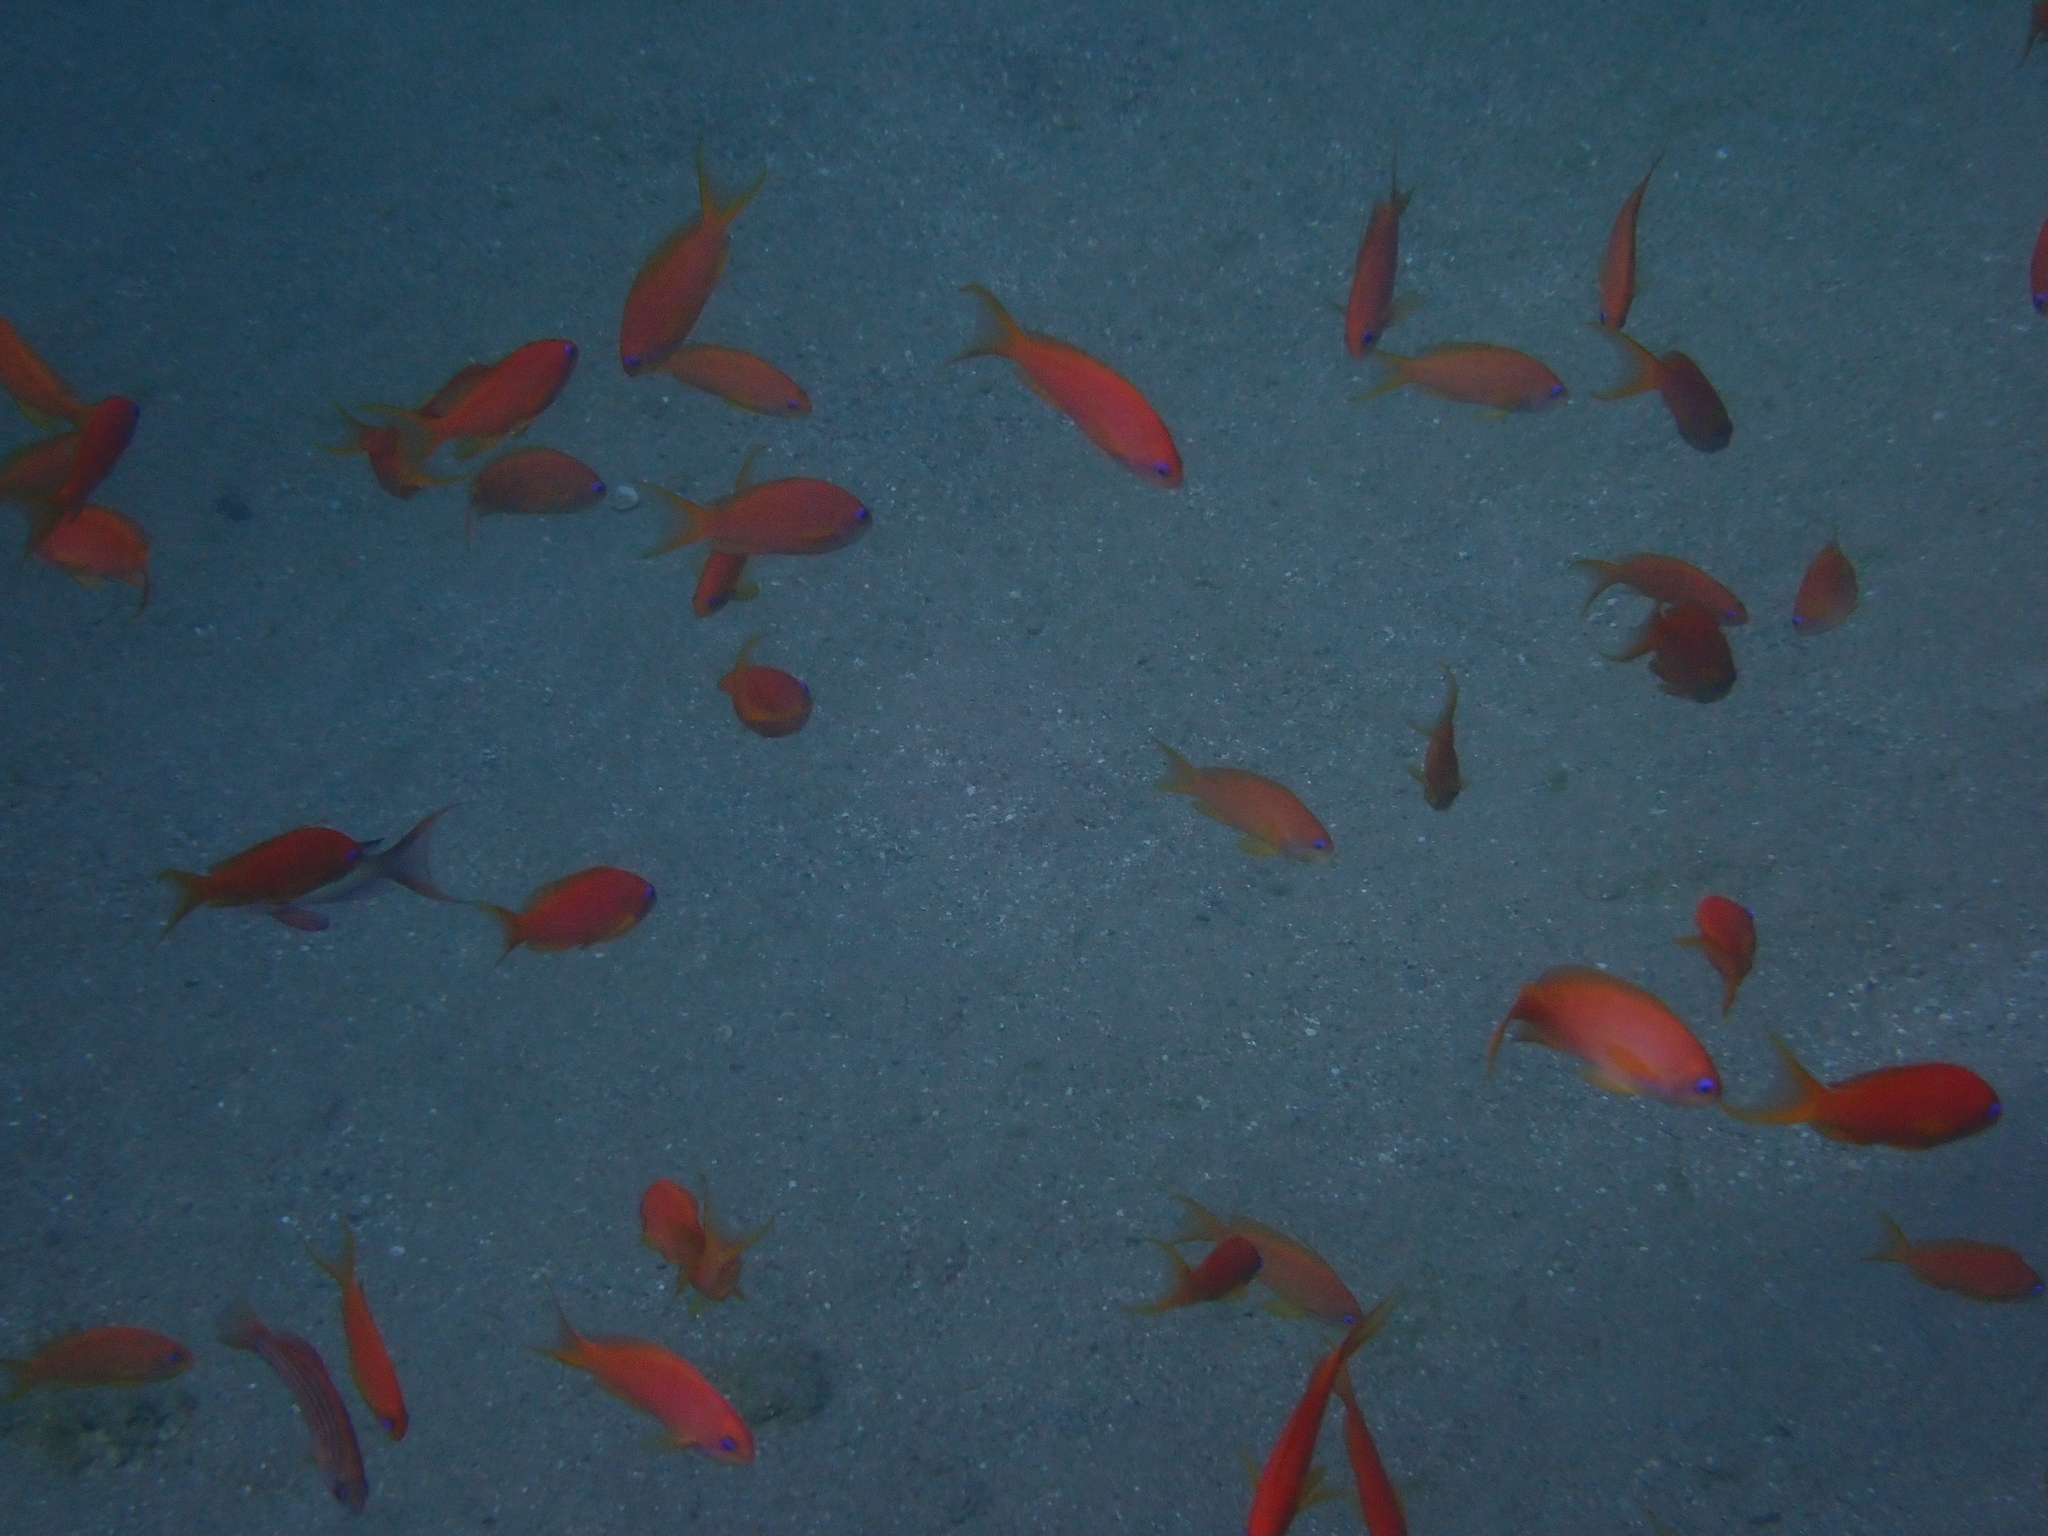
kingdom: Animalia
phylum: Chordata
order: Perciformes
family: Serranidae
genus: Pseudanthias
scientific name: Pseudanthias squamipinnis
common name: Scalefin anthias
